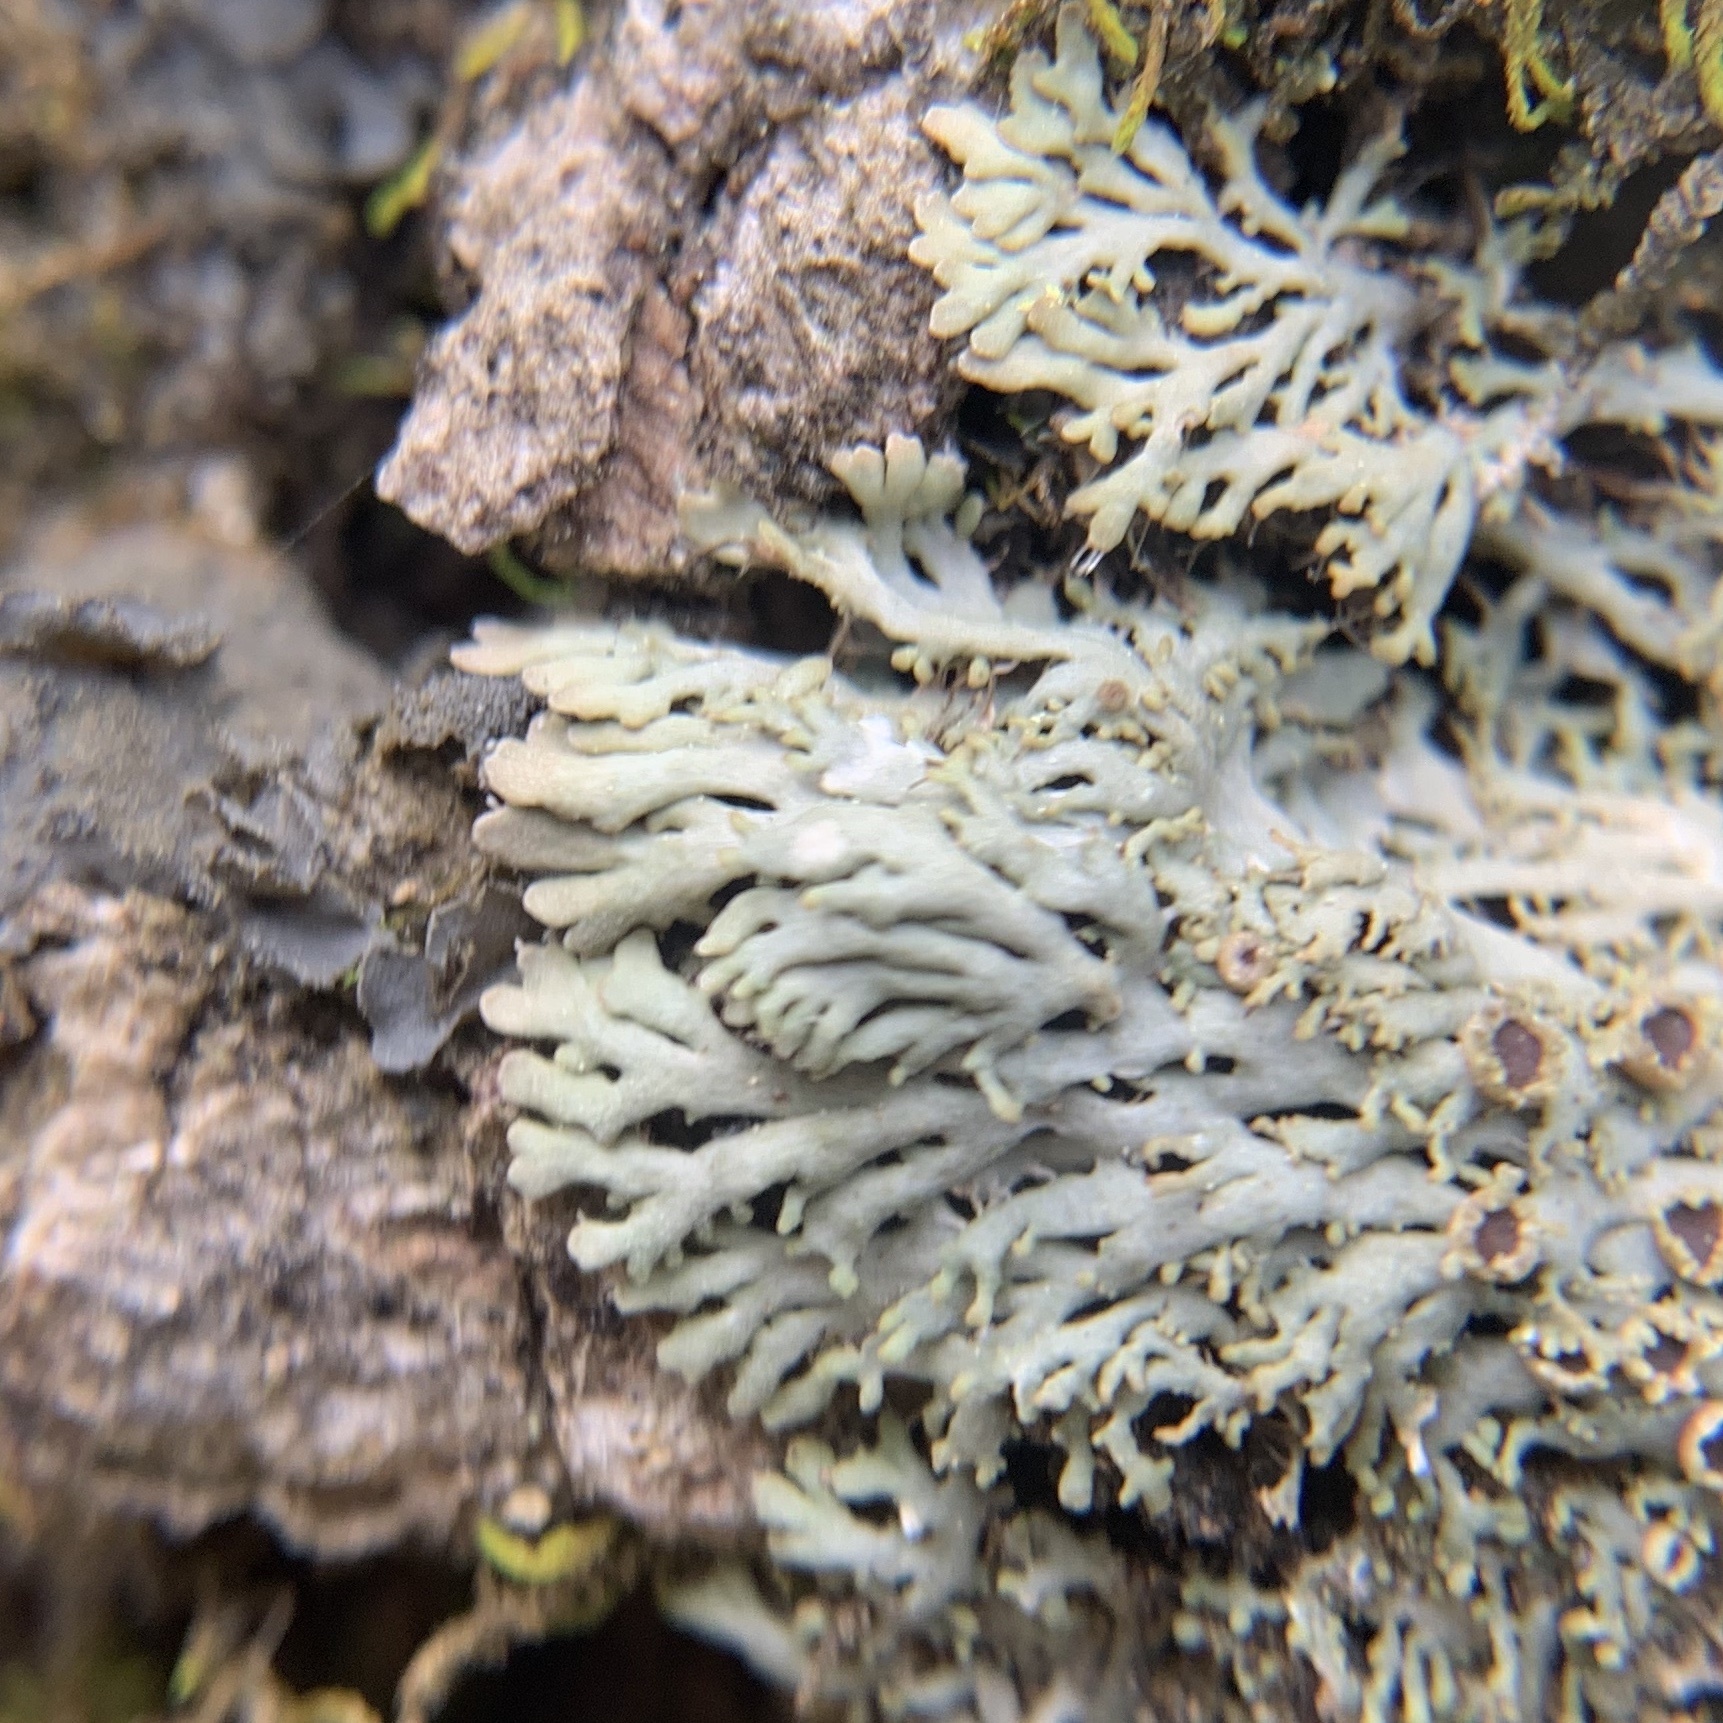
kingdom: Fungi
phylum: Ascomycota
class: Lecanoromycetes
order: Caliciales
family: Physciaceae
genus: Kurokawia
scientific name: Kurokawia palmulata
